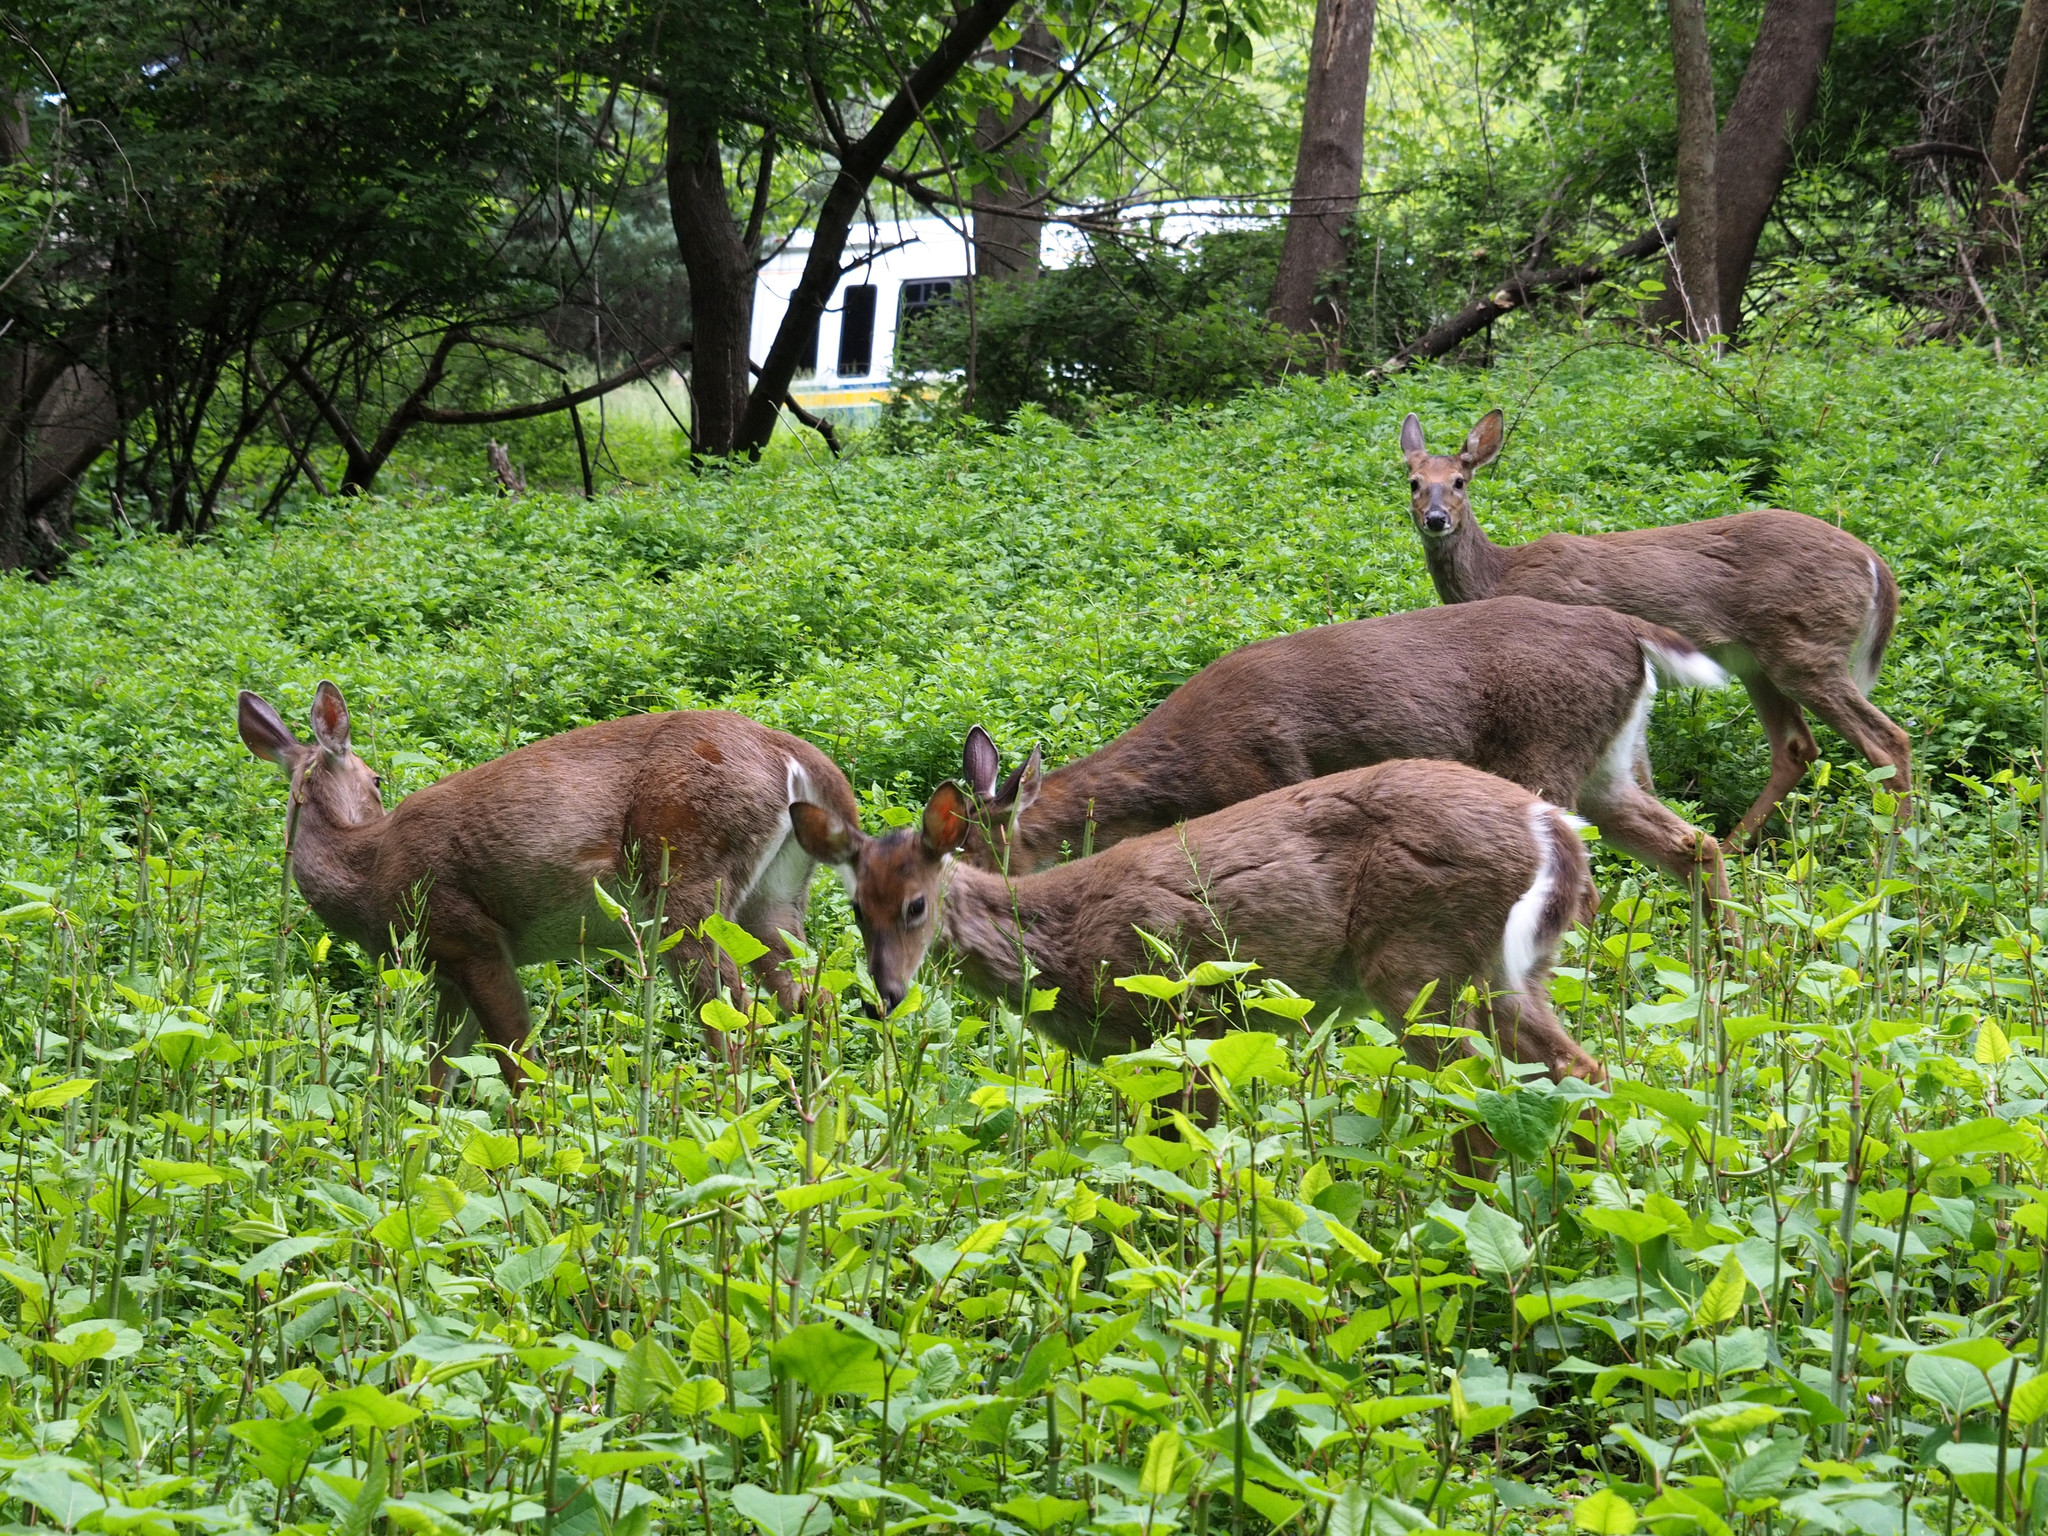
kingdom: Animalia
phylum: Chordata
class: Mammalia
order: Artiodactyla
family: Cervidae
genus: Odocoileus
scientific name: Odocoileus virginianus
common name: White-tailed deer
